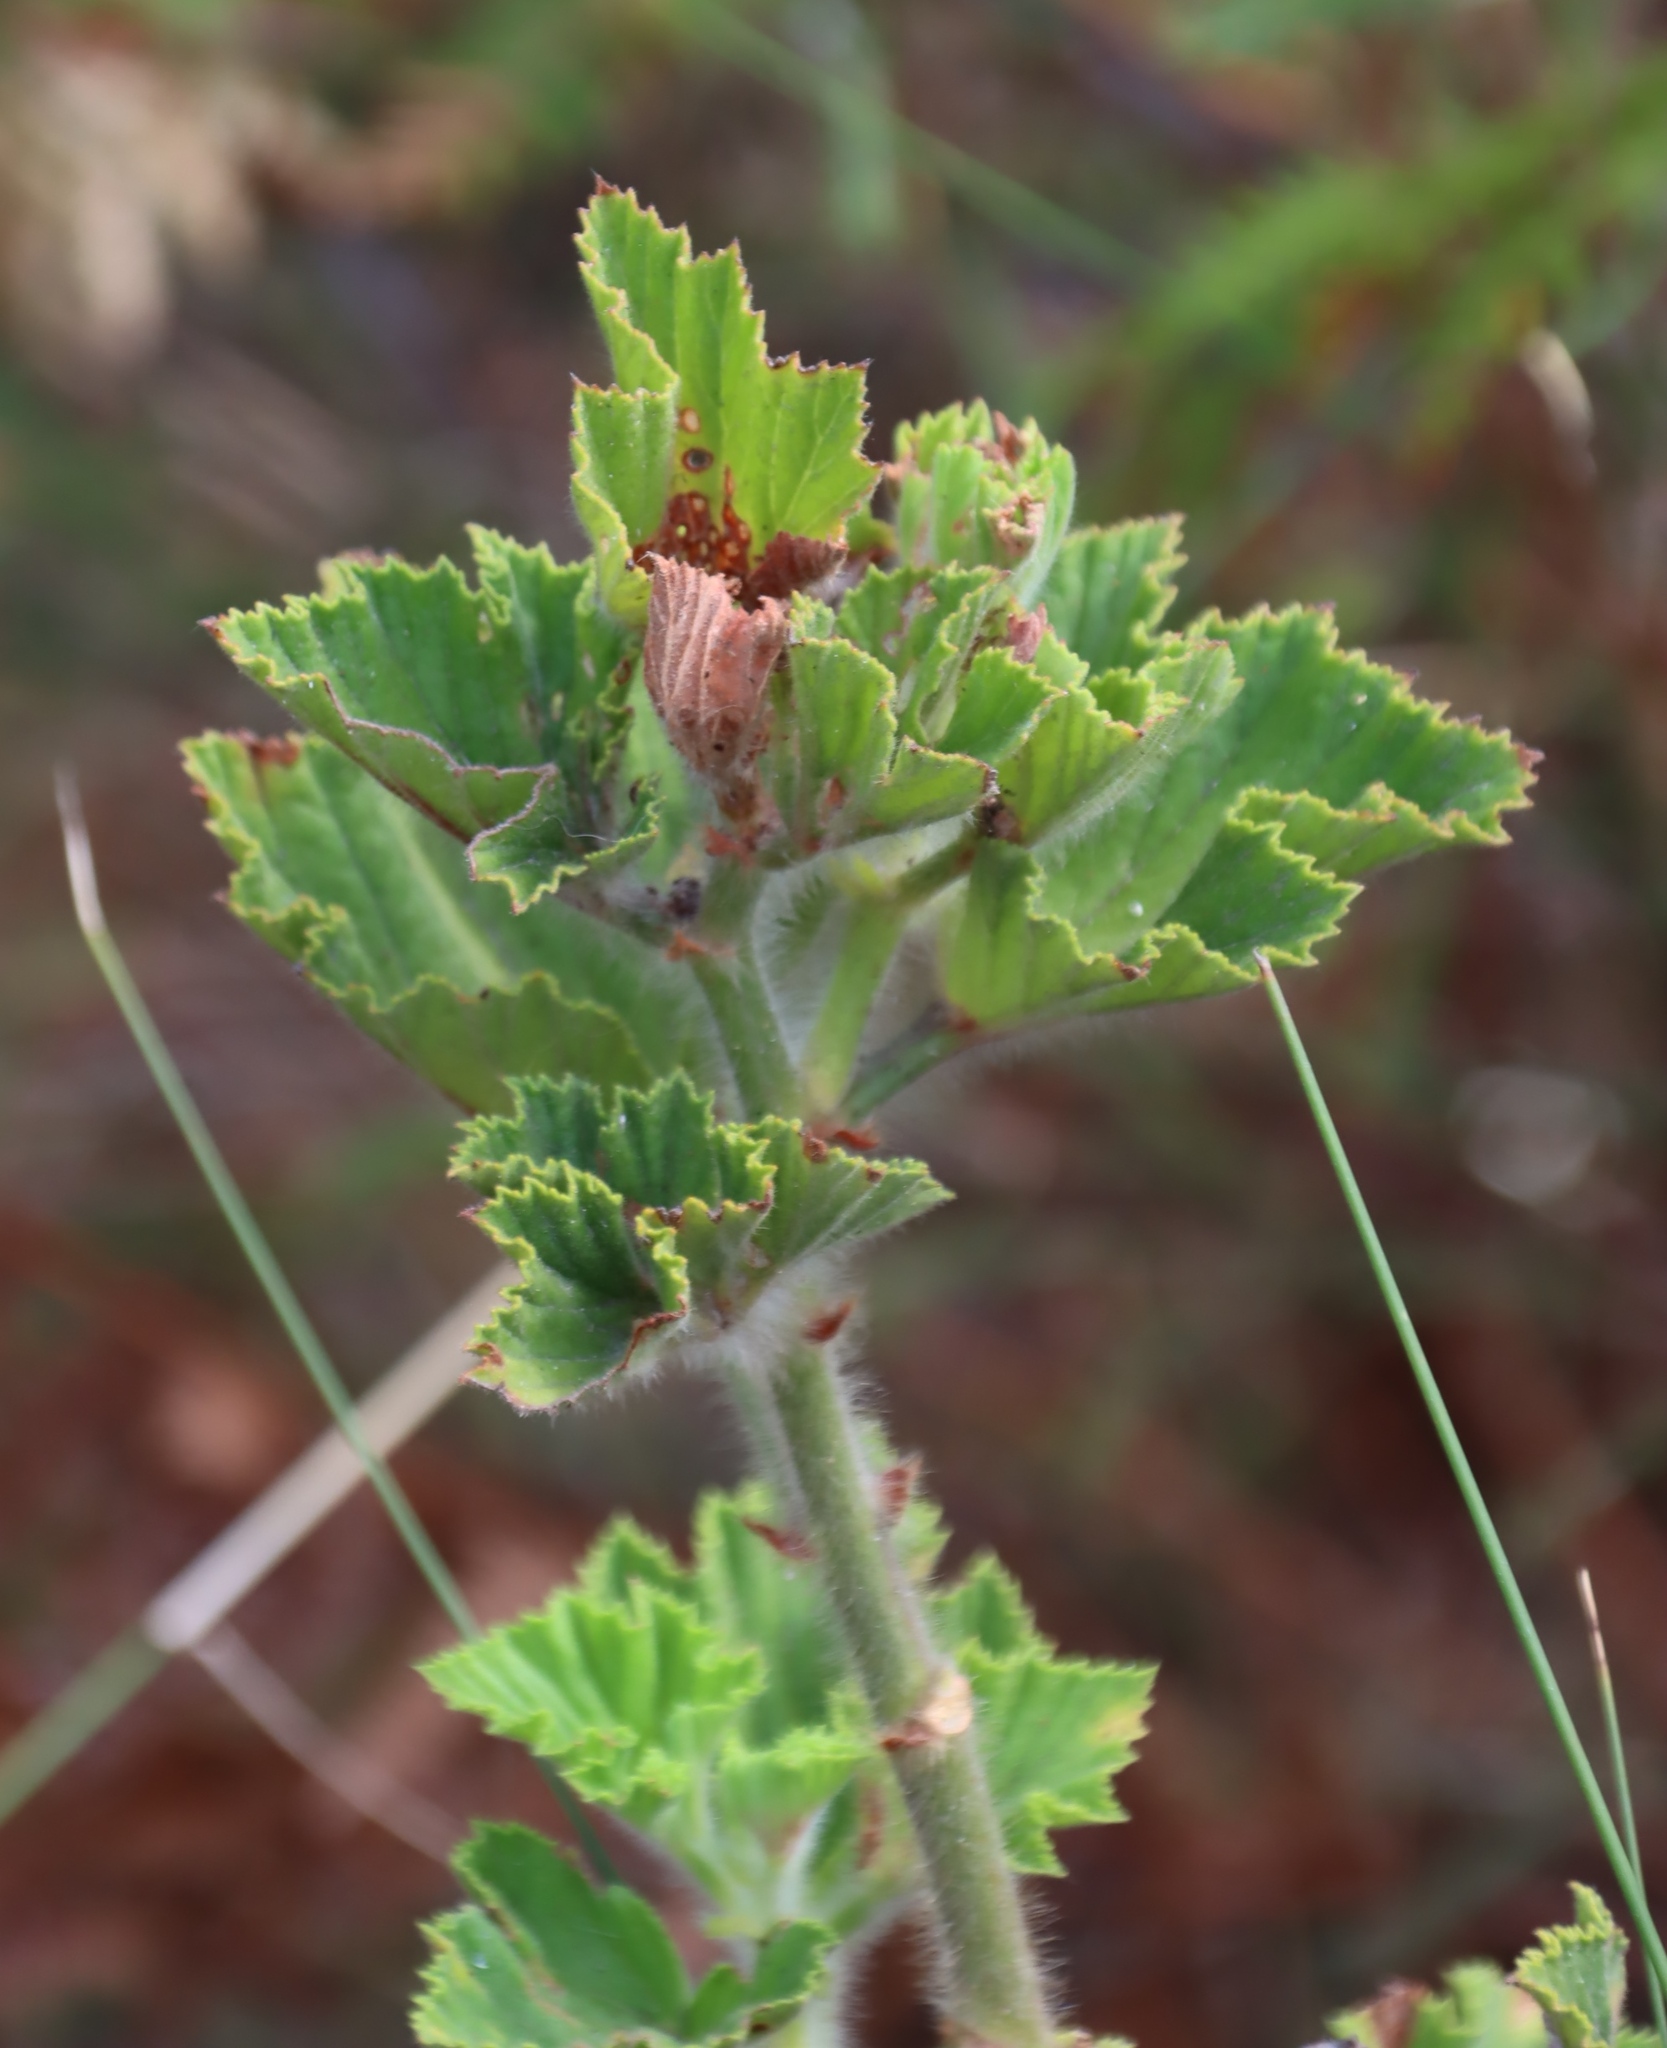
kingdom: Plantae
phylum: Tracheophyta
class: Magnoliopsida
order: Geraniales
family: Geraniaceae
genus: Pelargonium
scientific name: Pelargonium cucullatum
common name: Tree pelargonium
